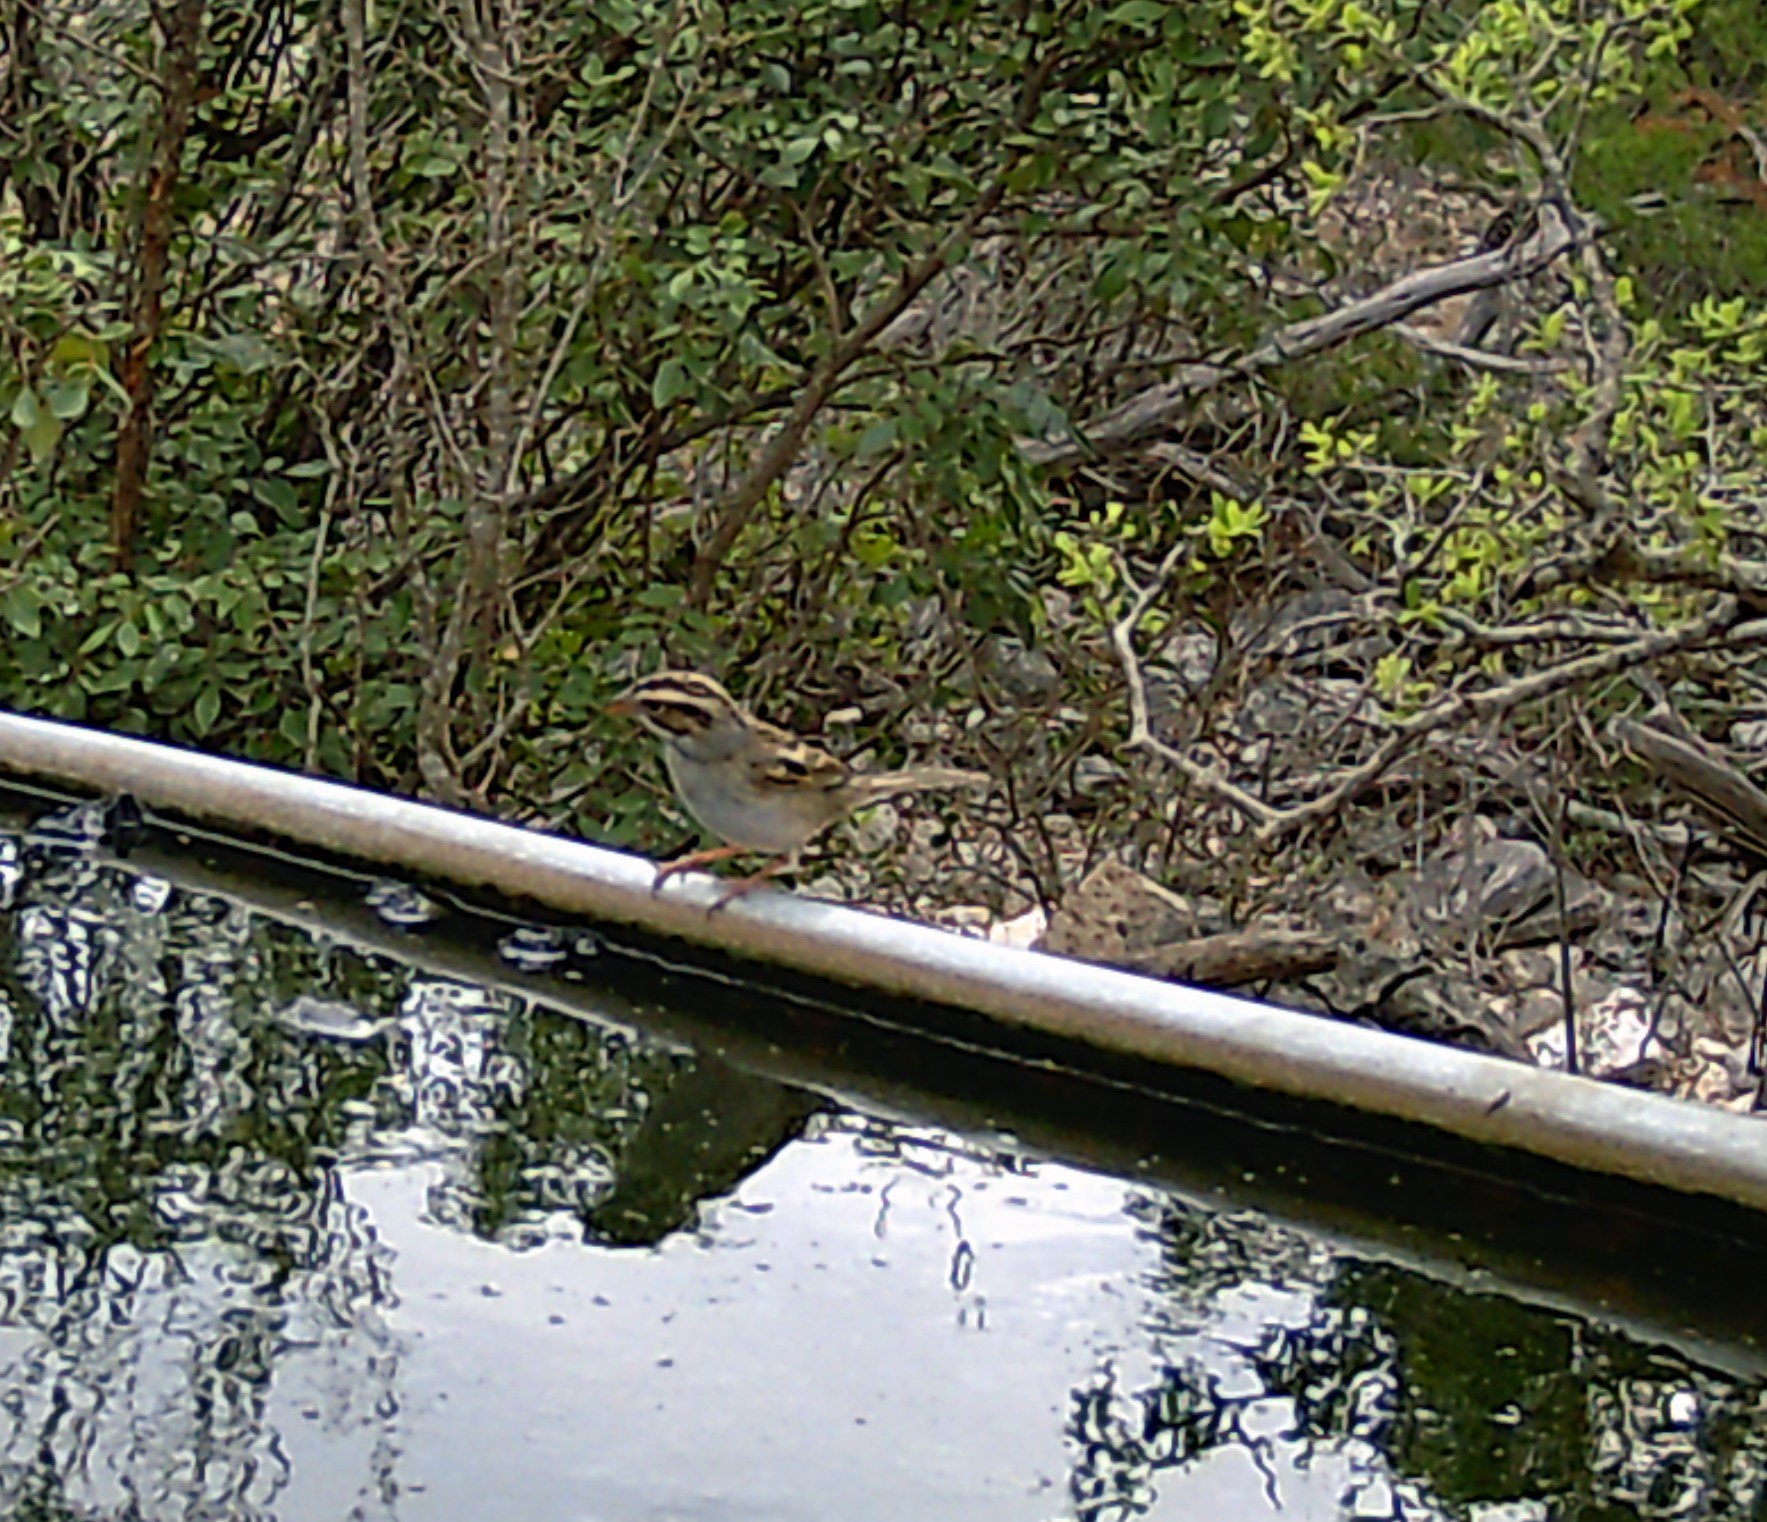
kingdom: Animalia
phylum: Chordata
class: Aves
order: Passeriformes
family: Passerellidae
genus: Spizella
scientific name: Spizella pallida
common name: Clay-colored sparrow
